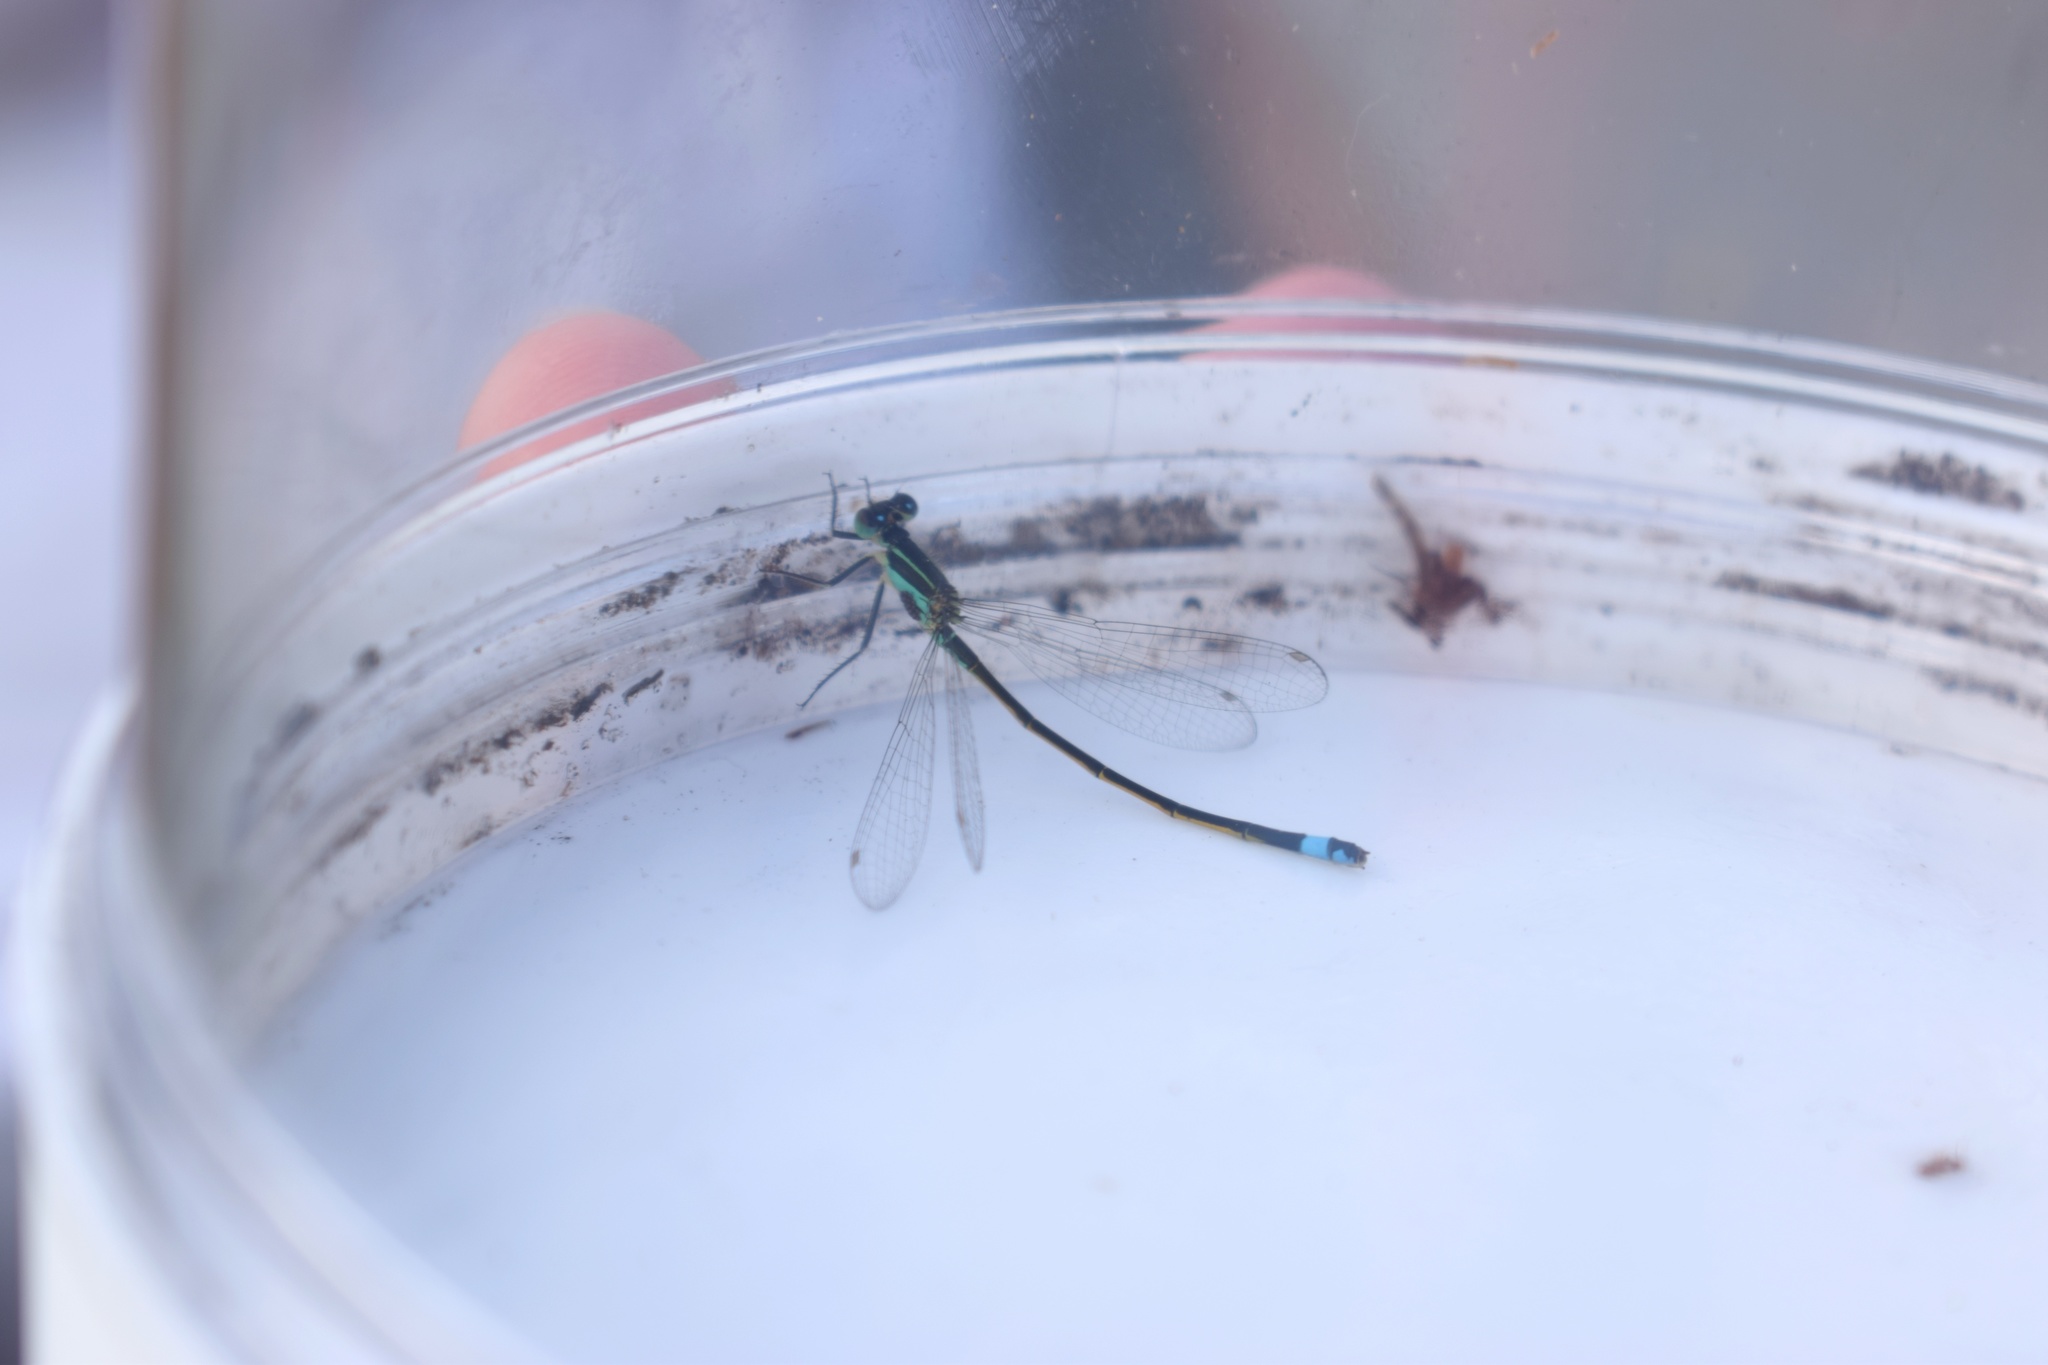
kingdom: Animalia
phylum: Arthropoda
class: Insecta
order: Odonata
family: Coenagrionidae
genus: Ischnura
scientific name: Ischnura ramburii
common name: Rambur's forktail
